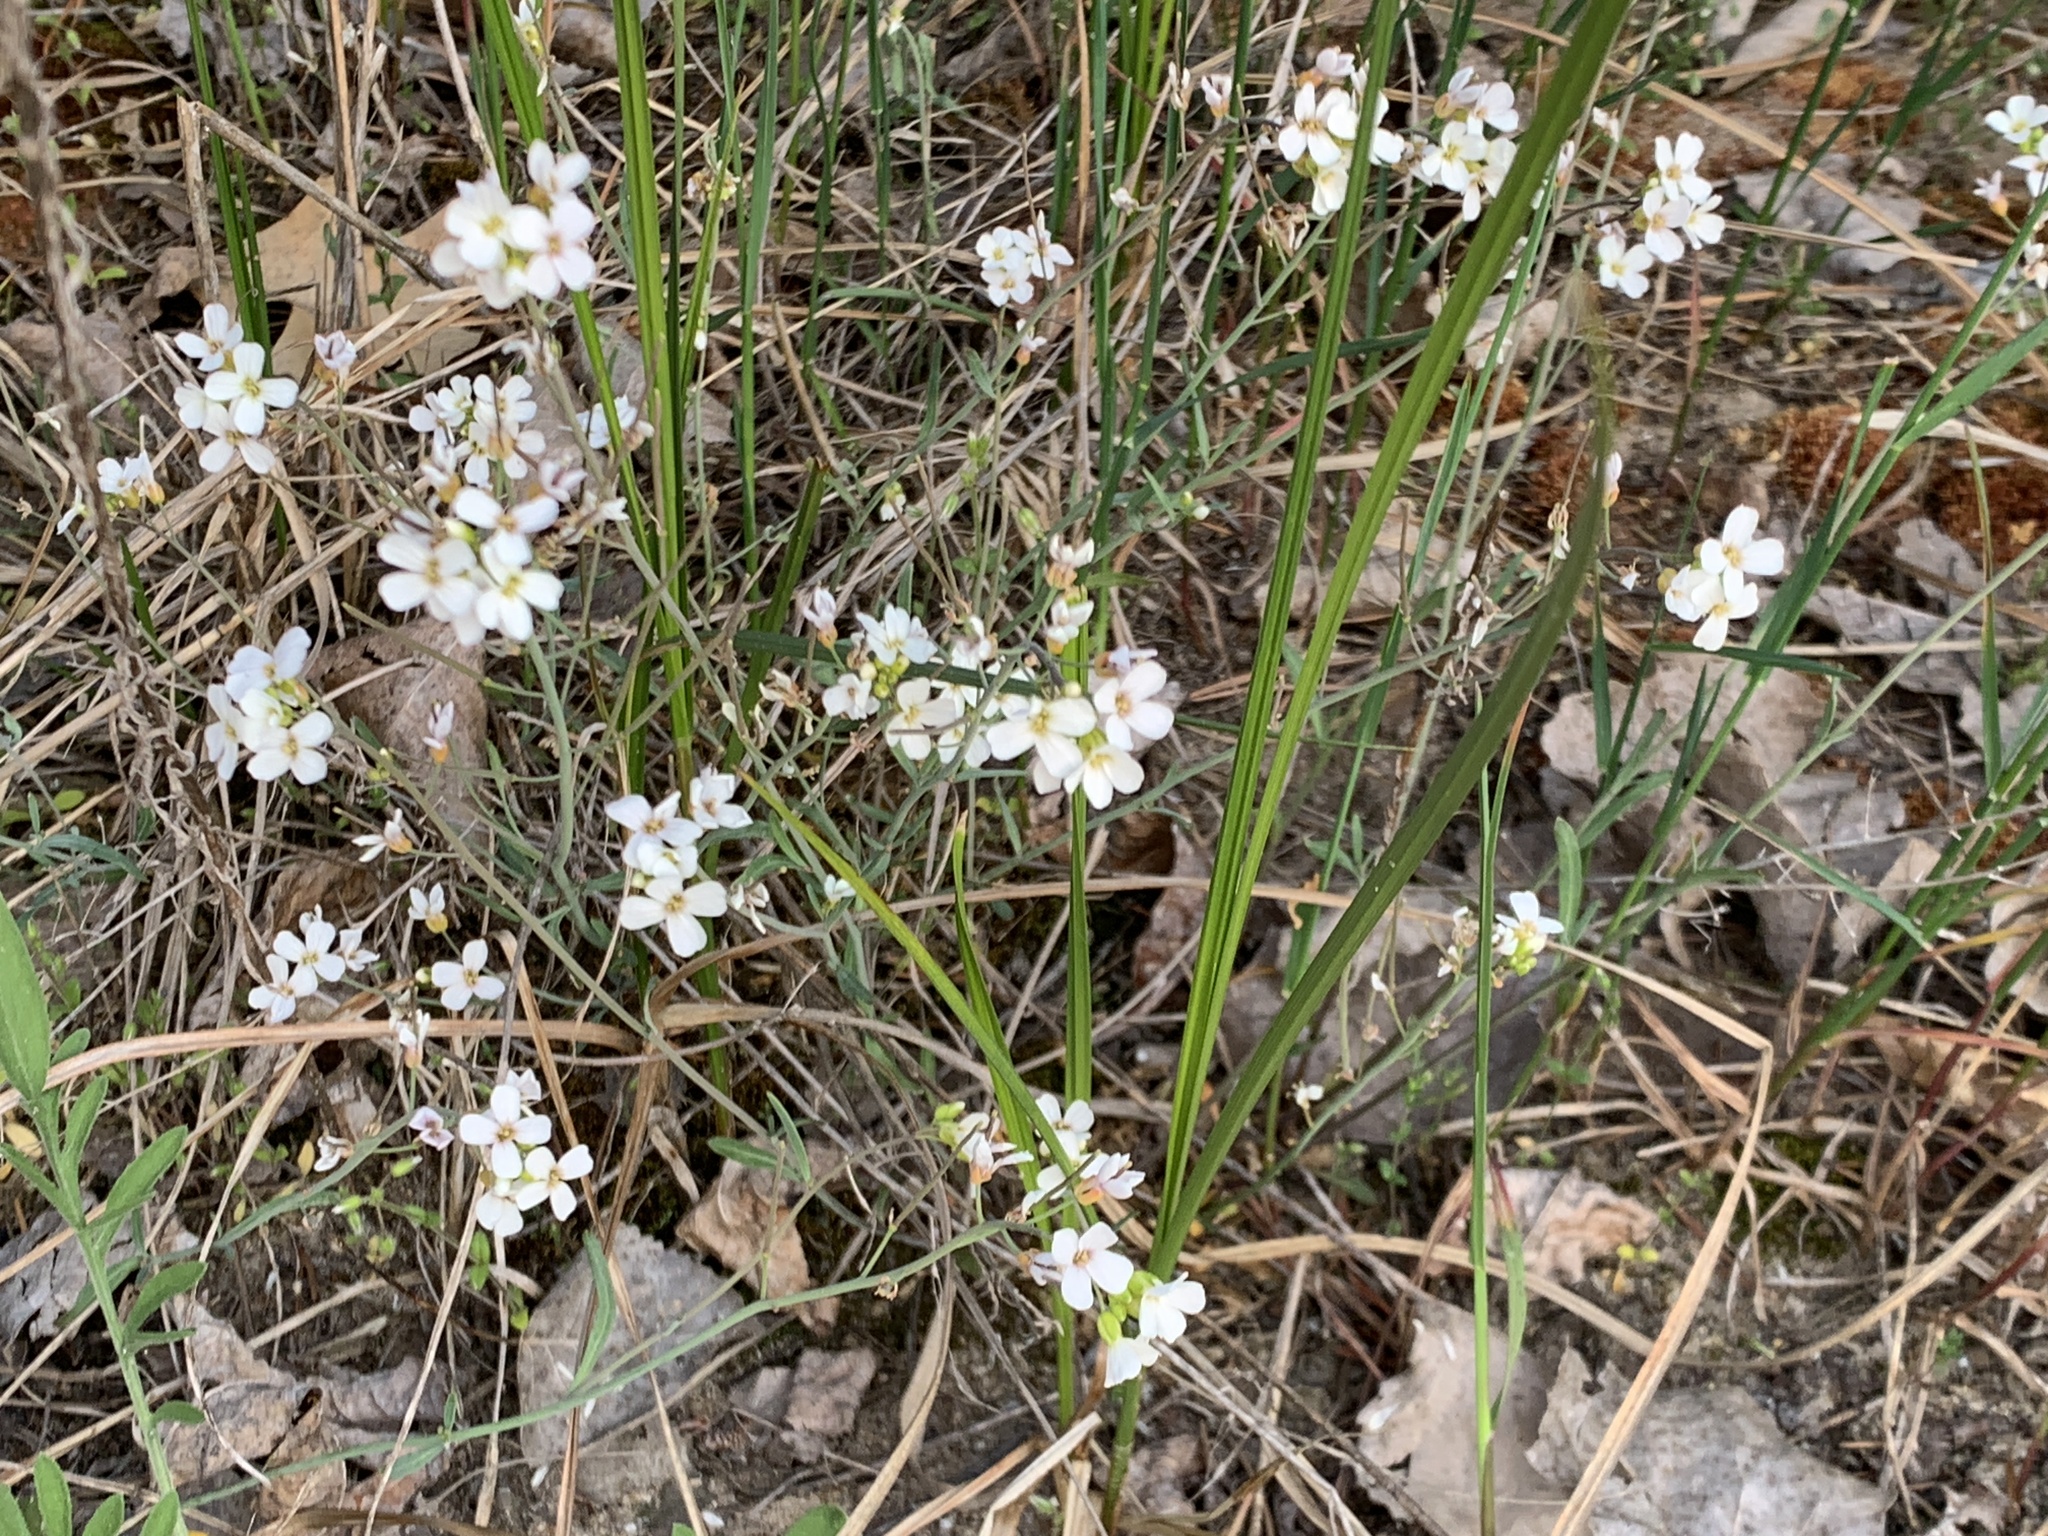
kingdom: Plantae
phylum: Tracheophyta
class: Magnoliopsida
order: Brassicales
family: Brassicaceae
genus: Arabidopsis
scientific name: Arabidopsis lyrata
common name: Lyrate rockcress
